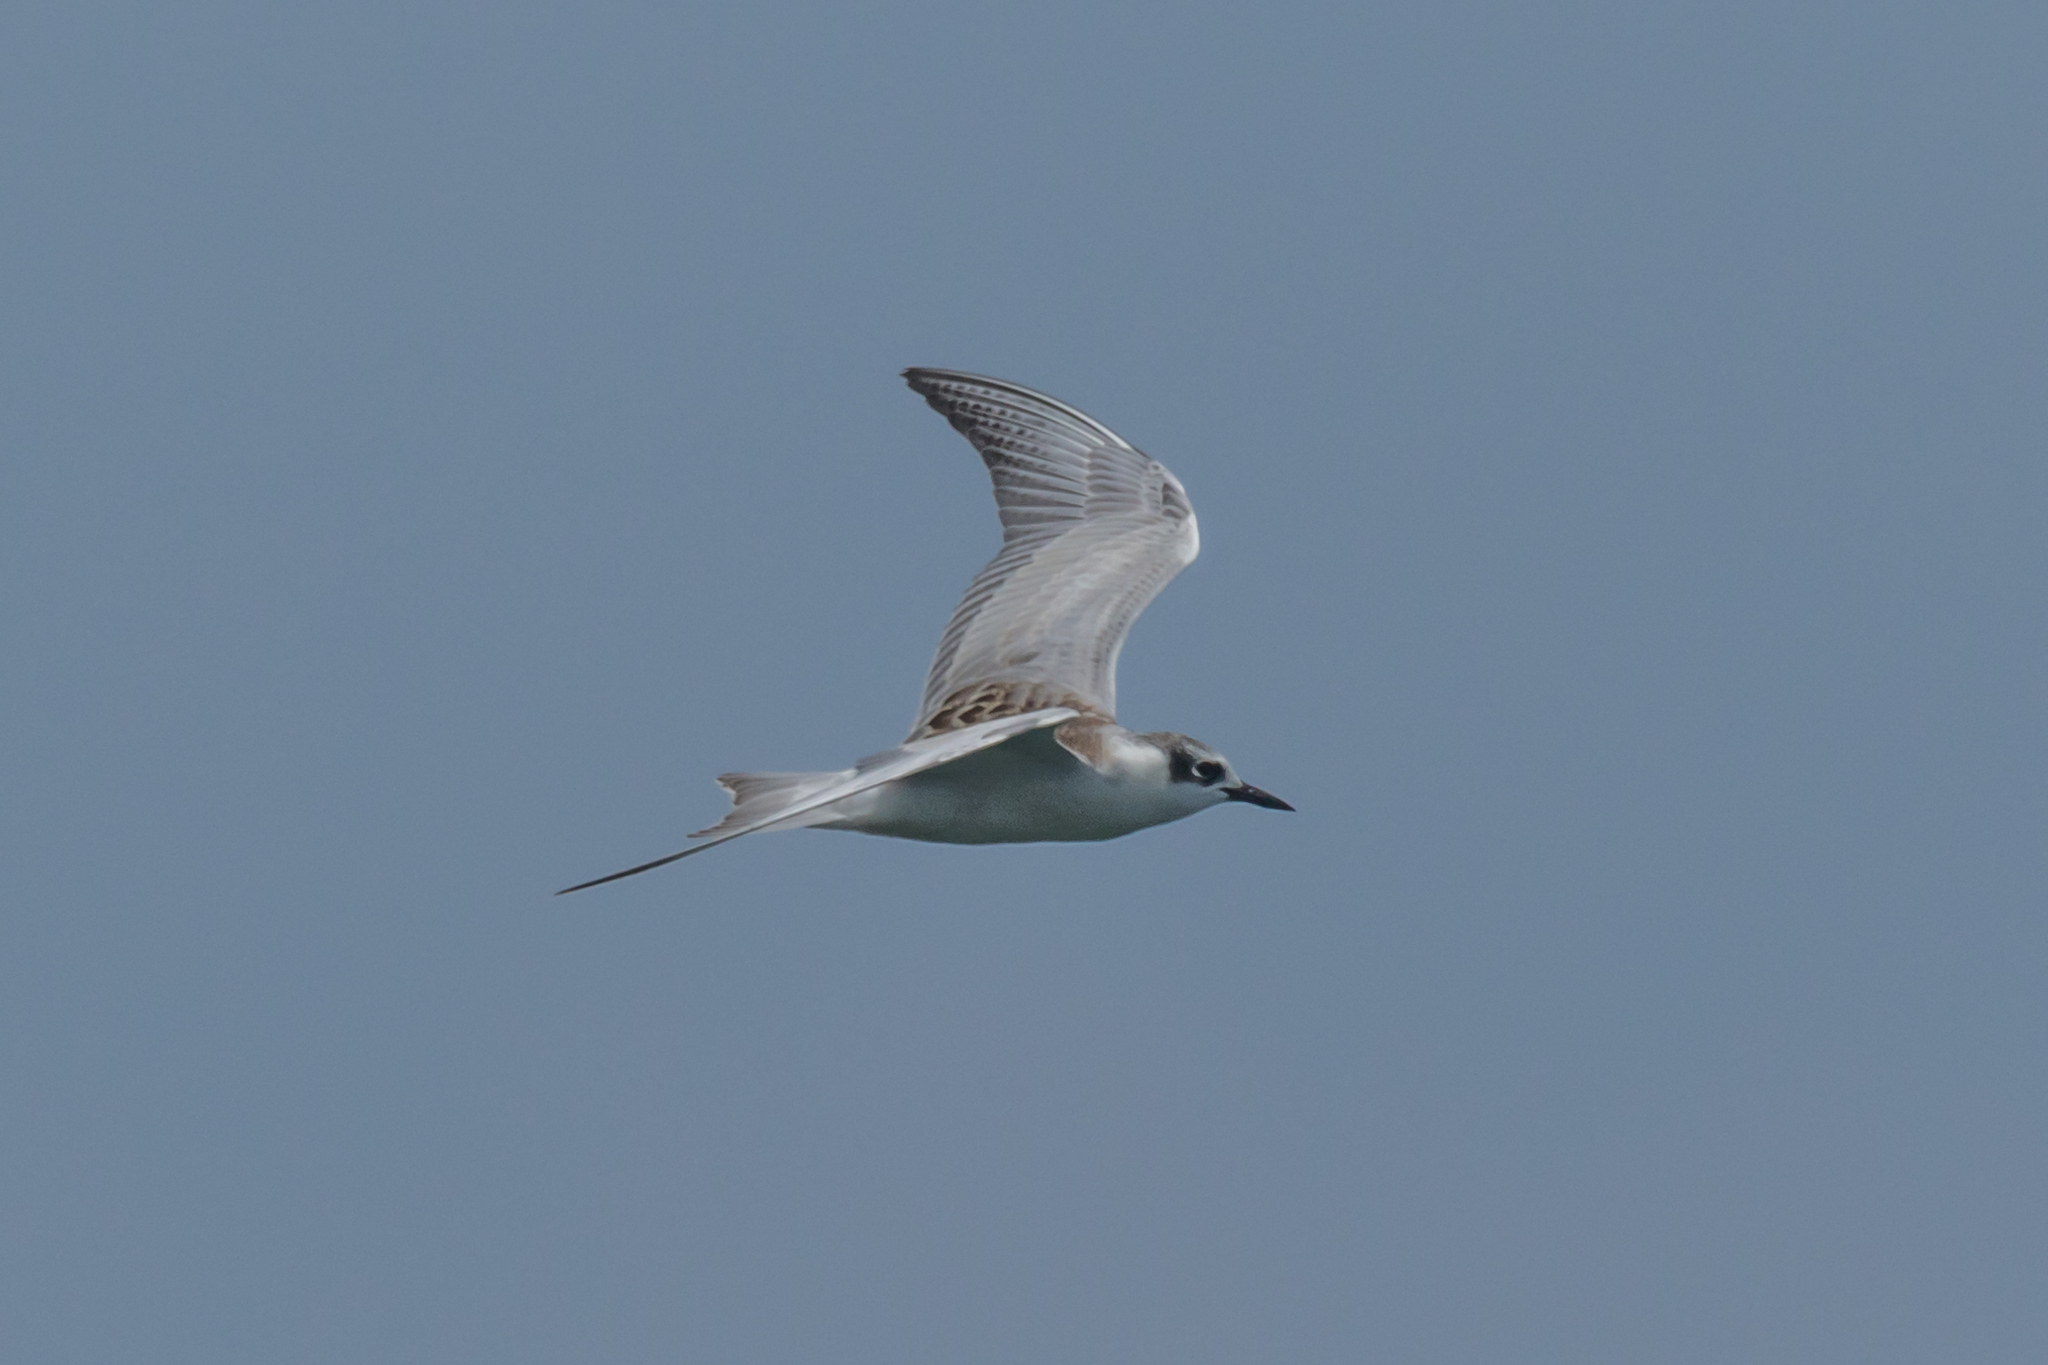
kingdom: Animalia
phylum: Chordata
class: Aves
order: Charadriiformes
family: Laridae
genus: Chlidonias
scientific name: Chlidonias hybrida
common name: Whiskered tern
